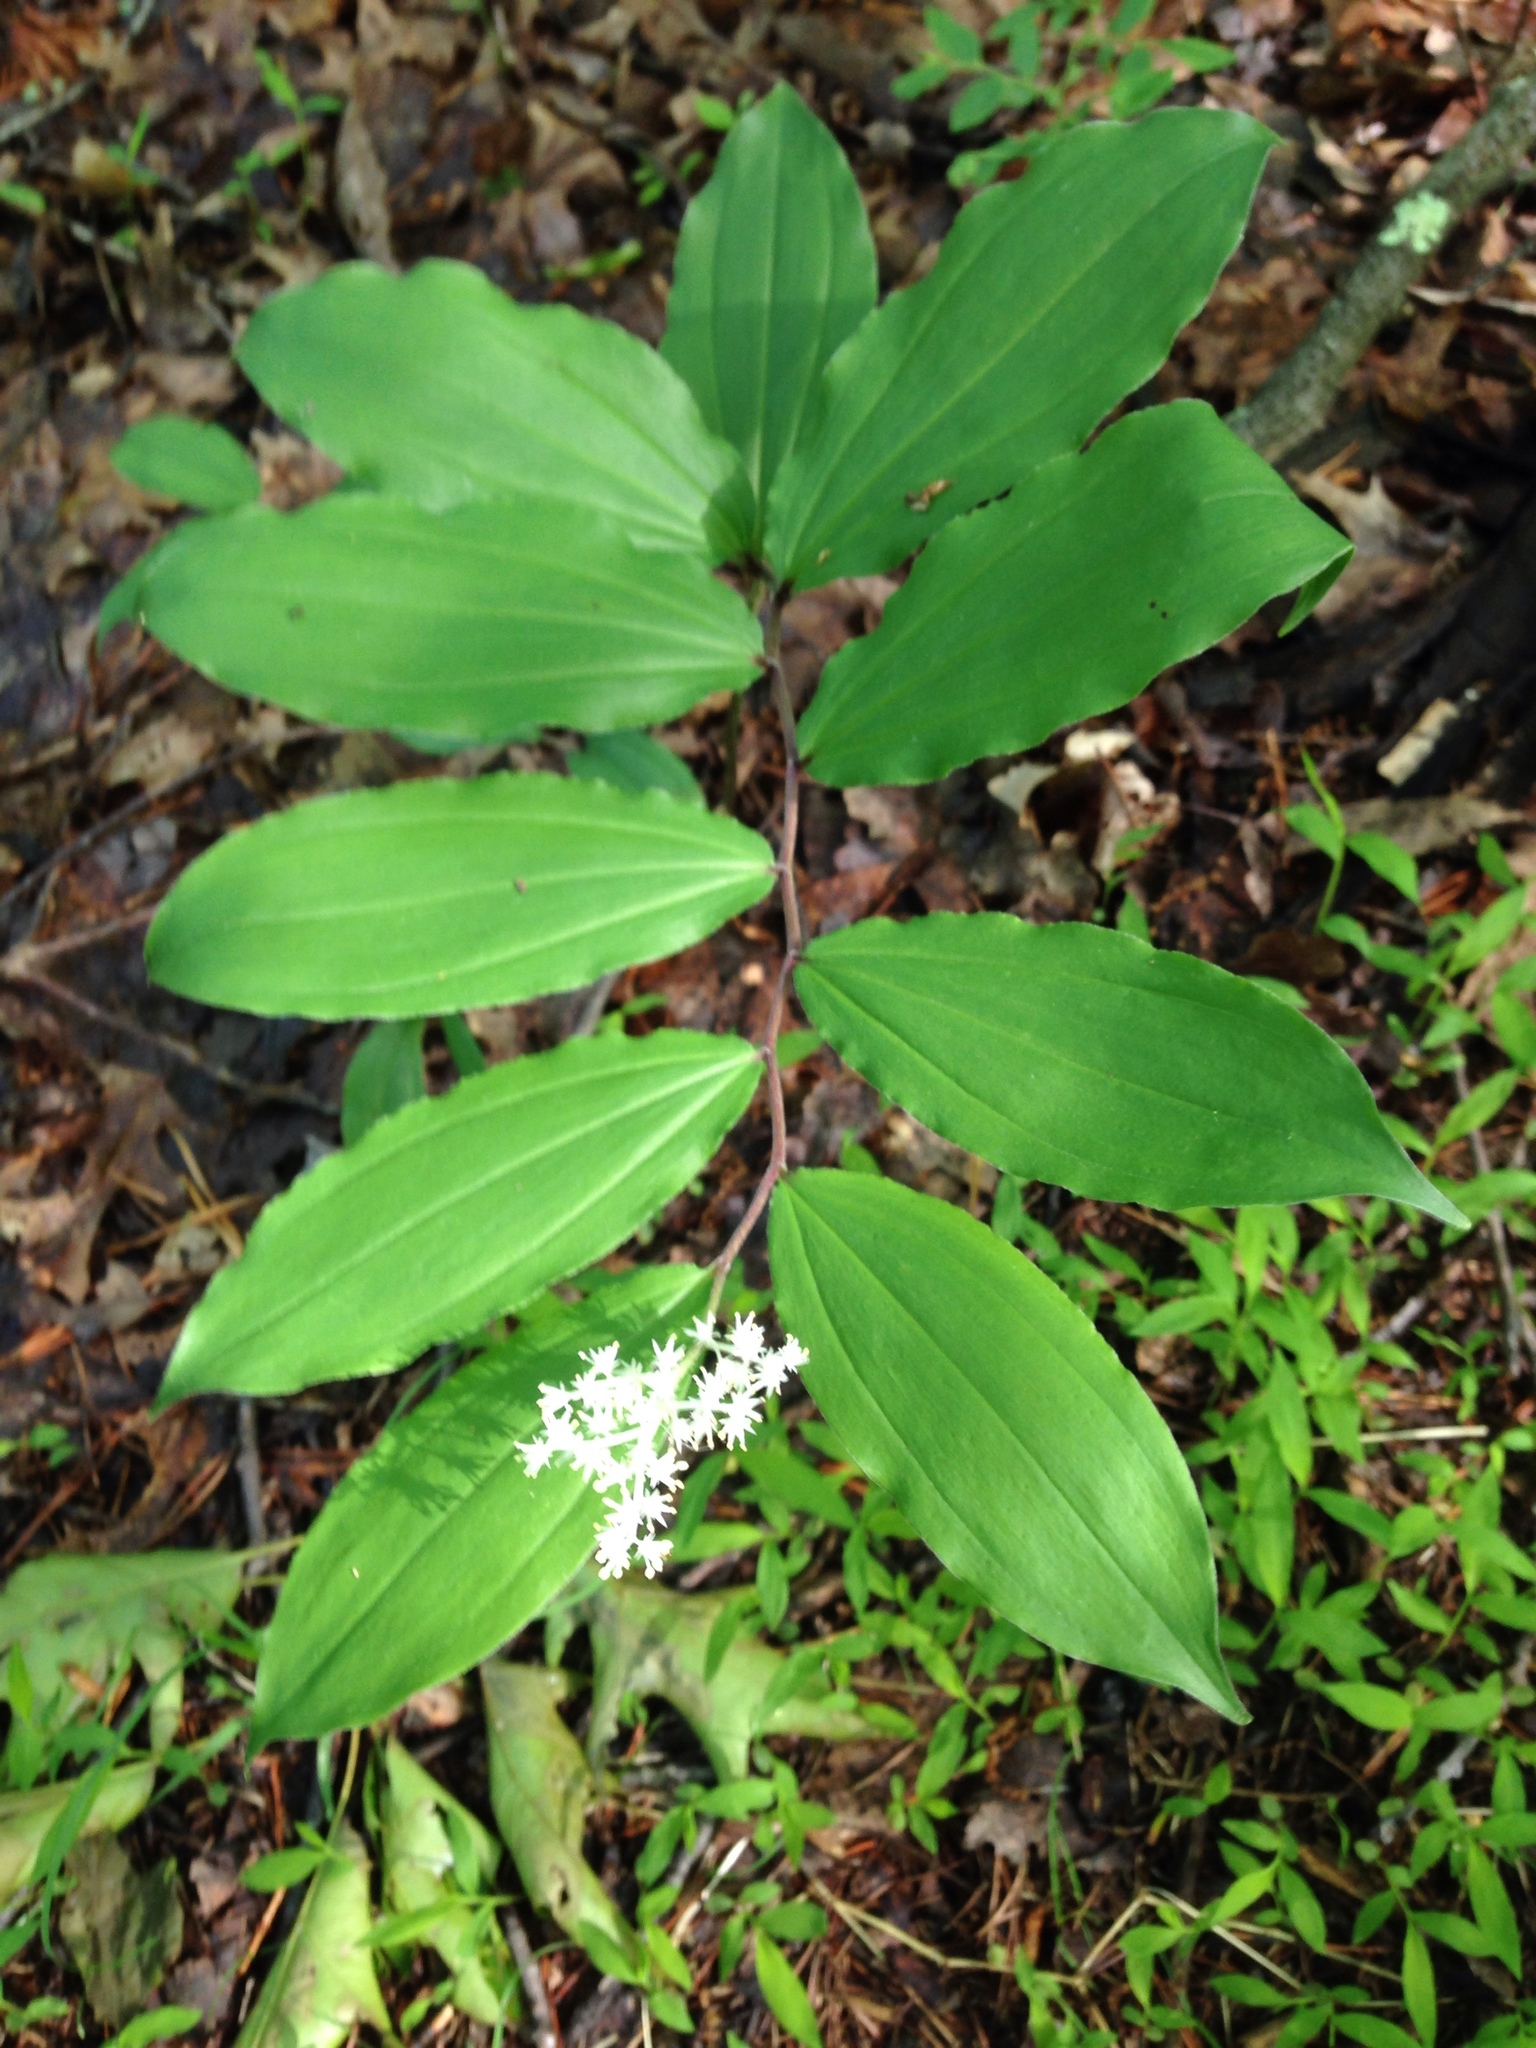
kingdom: Plantae
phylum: Tracheophyta
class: Liliopsida
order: Asparagales
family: Asparagaceae
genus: Maianthemum
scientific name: Maianthemum racemosum
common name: False spikenard
